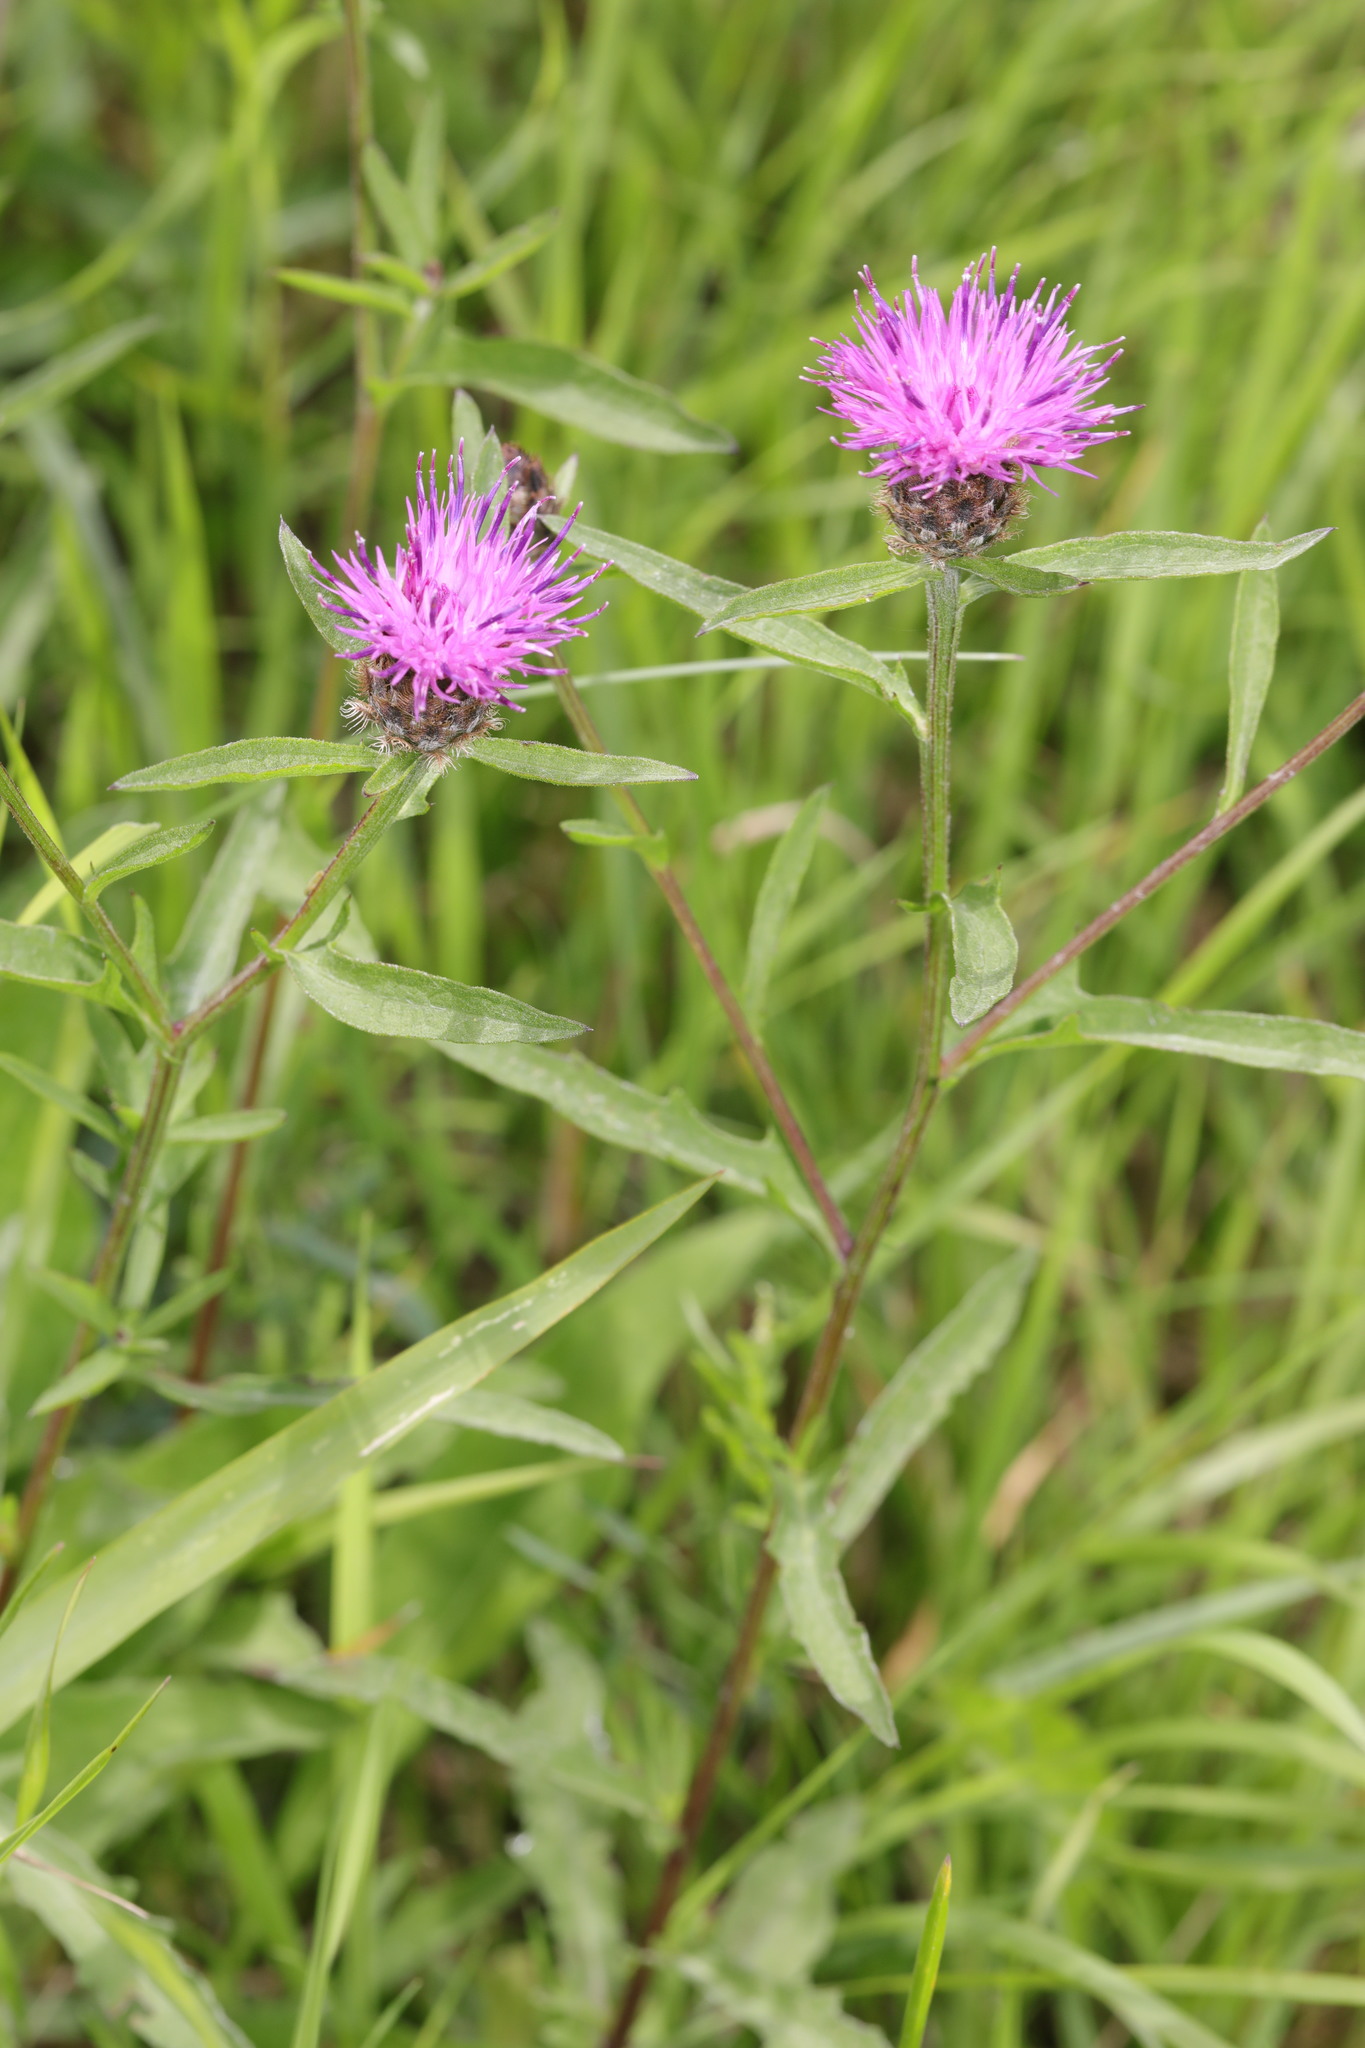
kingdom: Plantae
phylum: Tracheophyta
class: Magnoliopsida
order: Asterales
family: Asteraceae
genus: Centaurea
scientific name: Centaurea nigra
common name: Lesser knapweed
